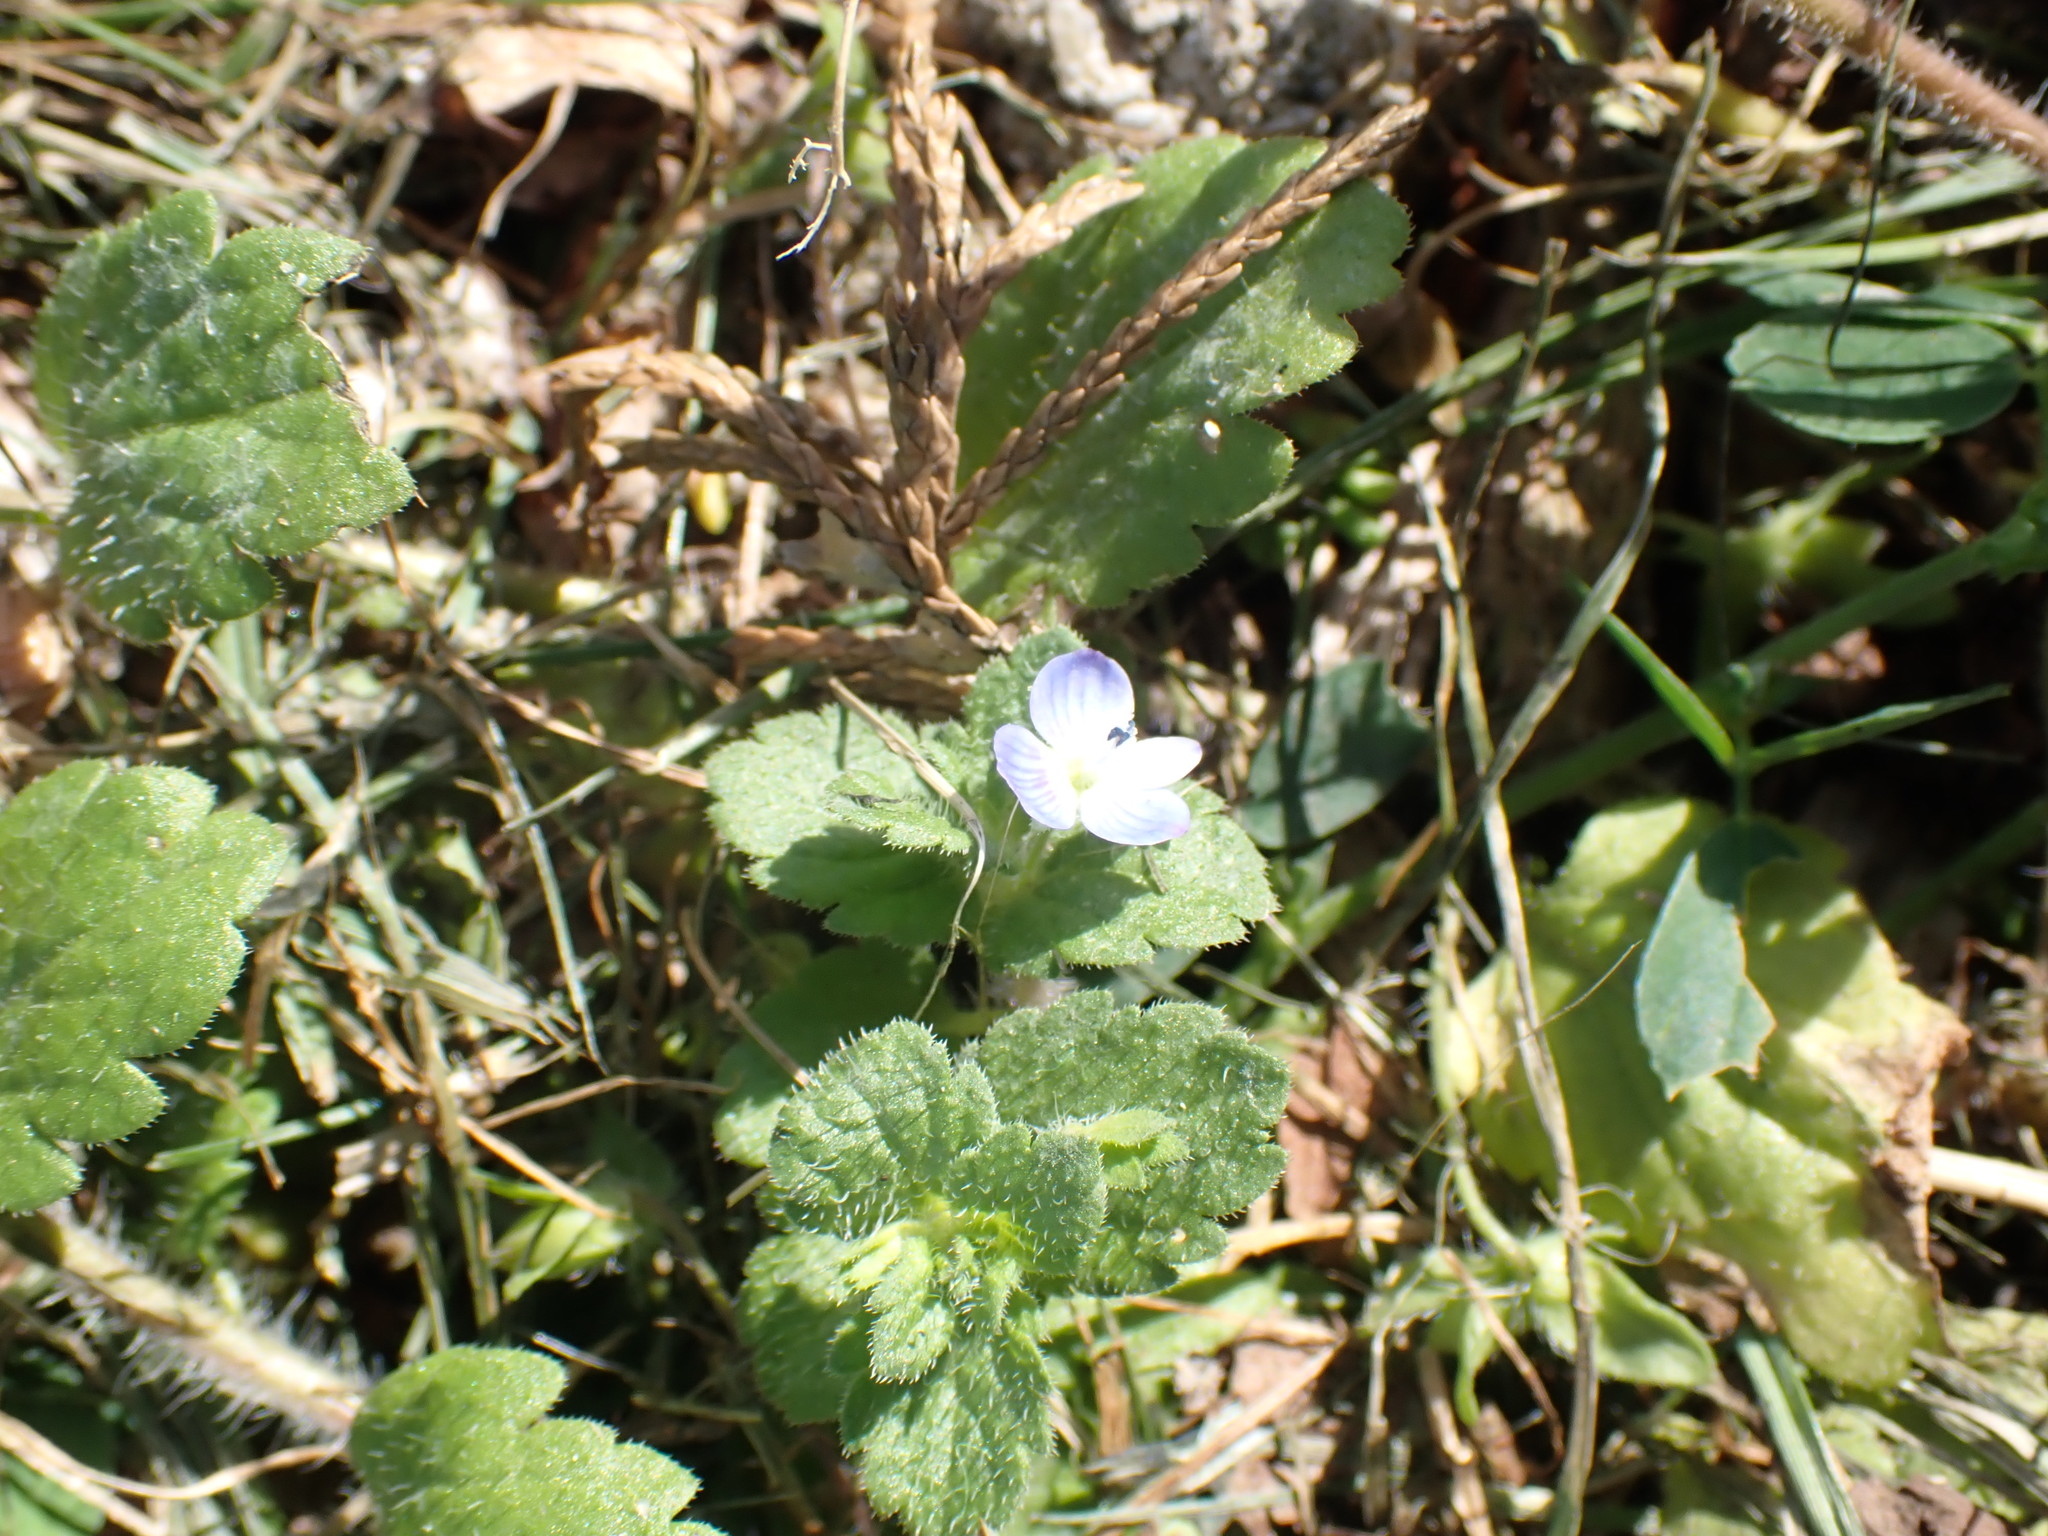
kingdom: Plantae
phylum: Tracheophyta
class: Magnoliopsida
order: Lamiales
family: Plantaginaceae
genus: Veronica
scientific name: Veronica persica
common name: Common field-speedwell
